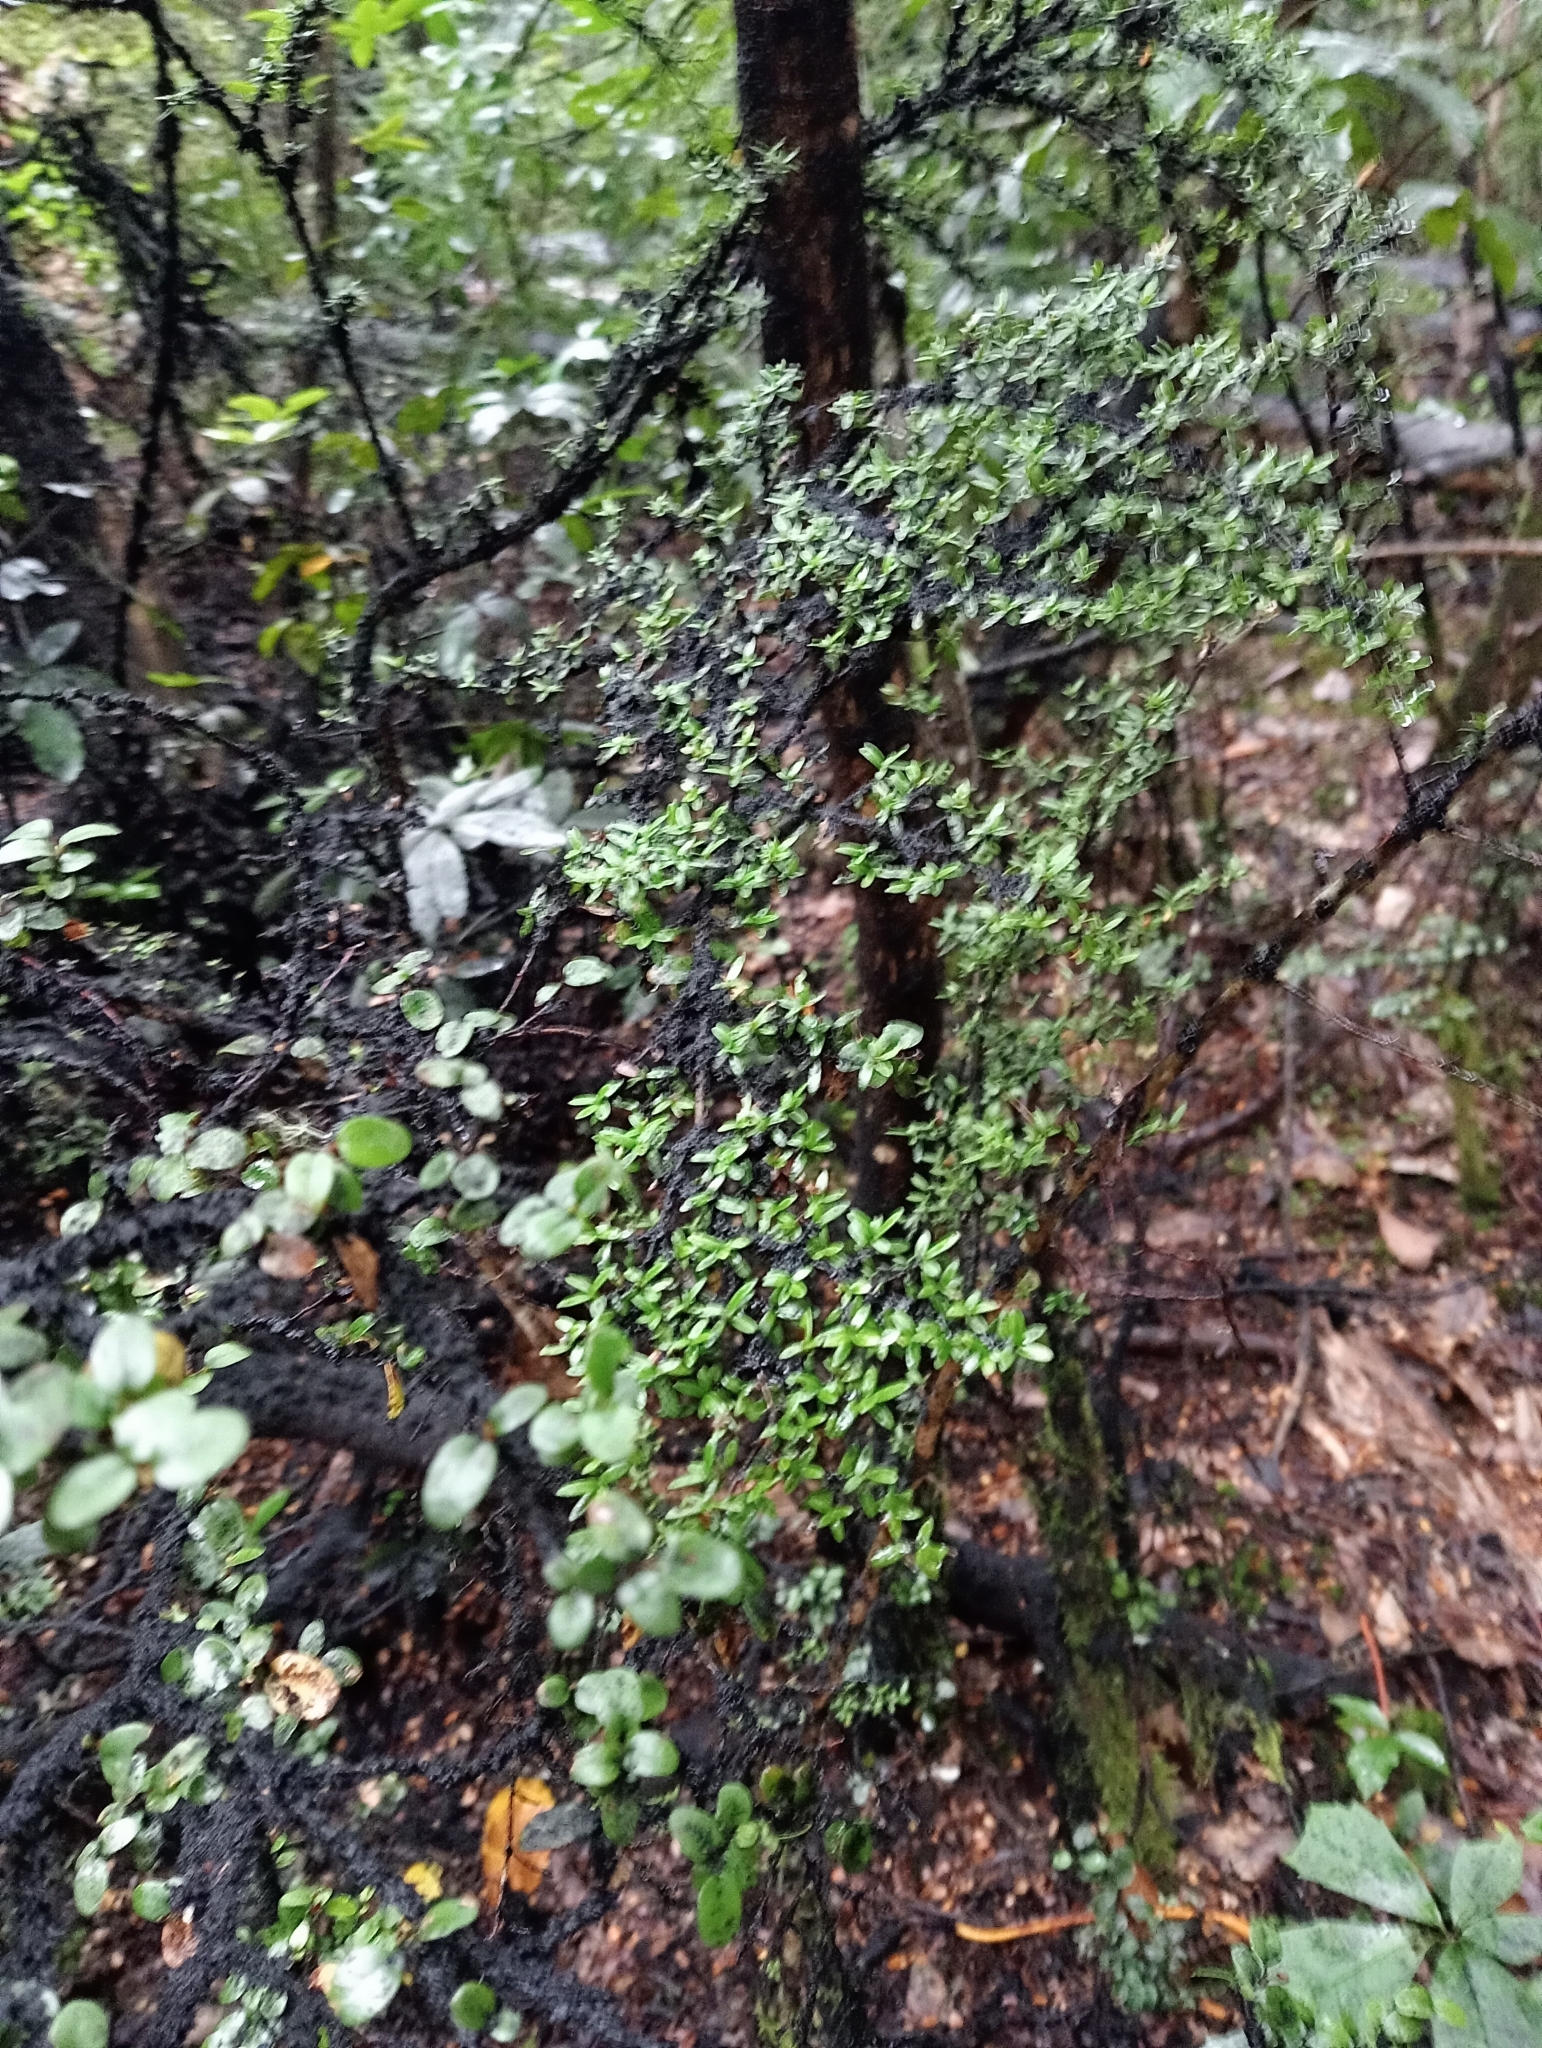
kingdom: Plantae
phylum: Tracheophyta
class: Magnoliopsida
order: Gentianales
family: Rubiaceae
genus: Coprosma
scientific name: Coprosma microcarpa
